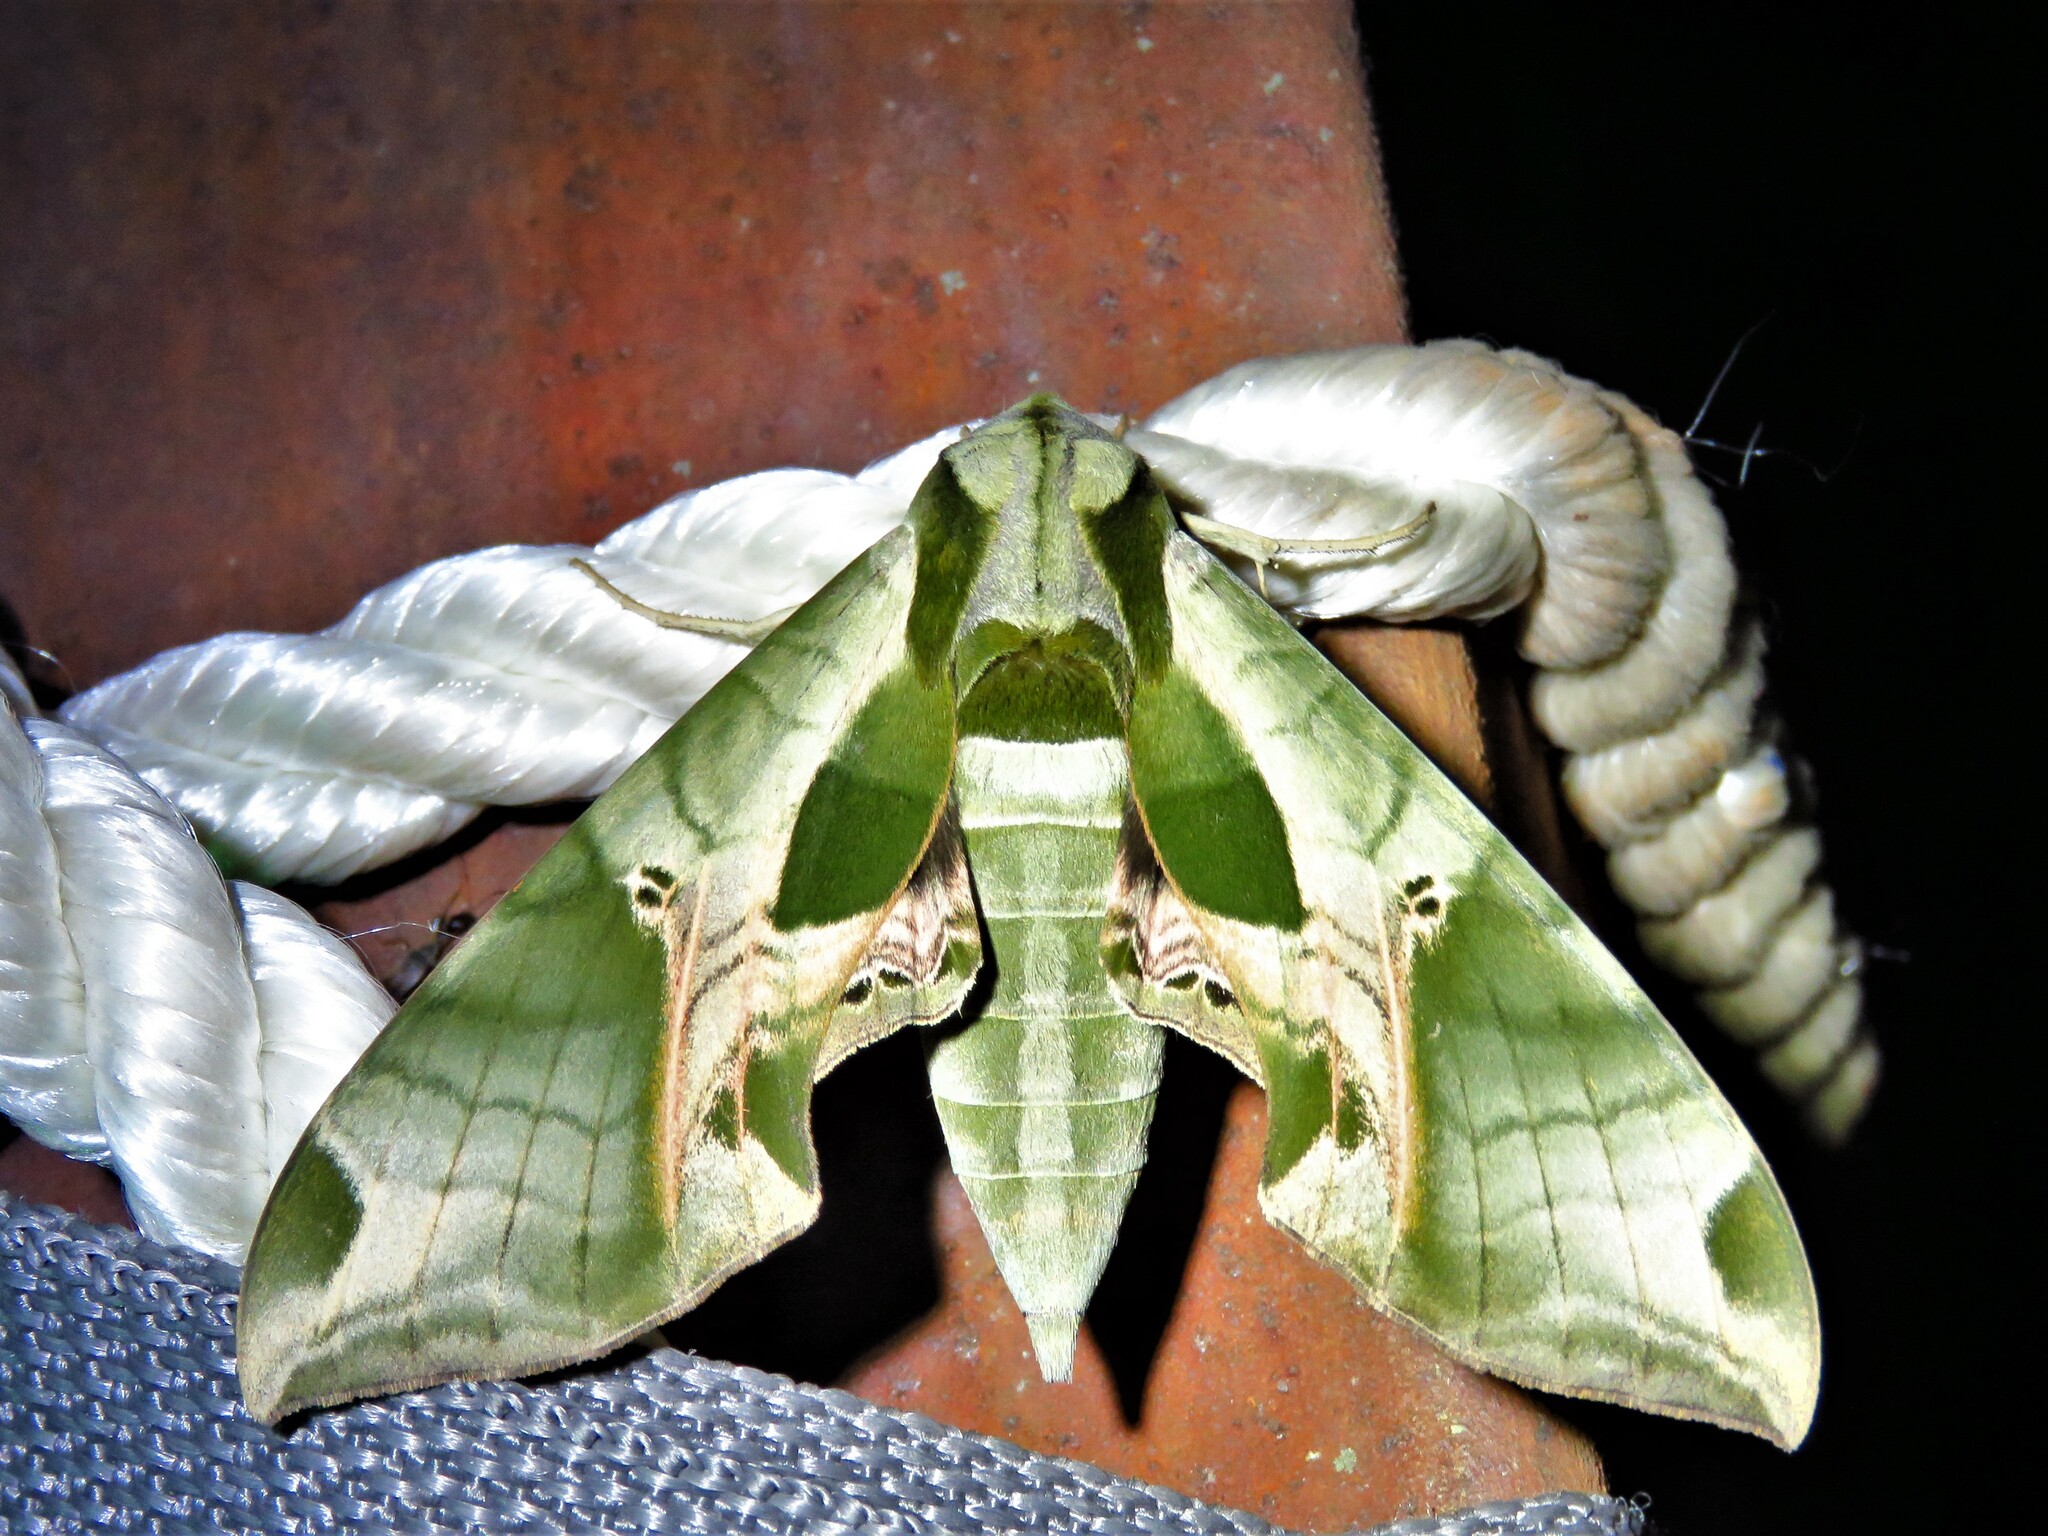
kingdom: Animalia
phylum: Arthropoda
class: Insecta
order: Lepidoptera
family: Sphingidae
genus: Eumorpha
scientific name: Eumorpha pandorus
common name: Pandora sphinx
